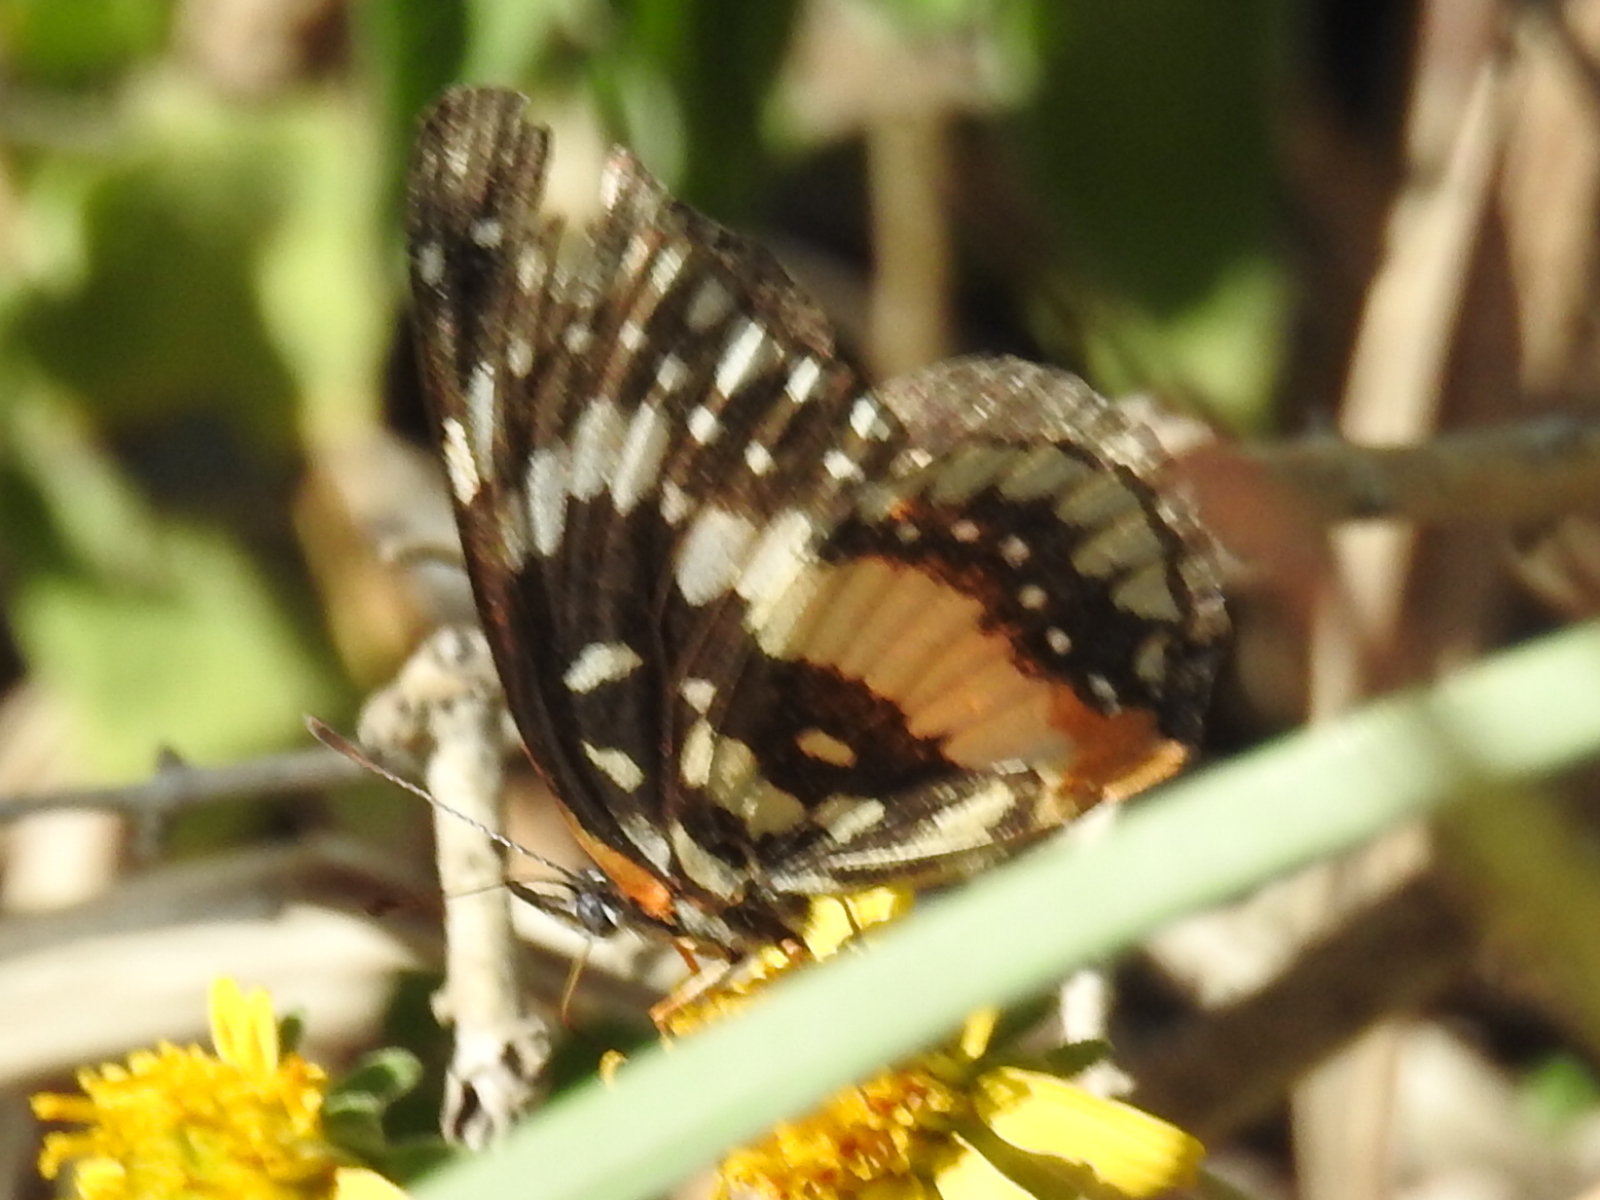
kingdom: Animalia
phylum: Arthropoda
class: Insecta
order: Lepidoptera
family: Nymphalidae
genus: Chlosyne
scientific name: Chlosyne lacinia
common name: Bordered patch
